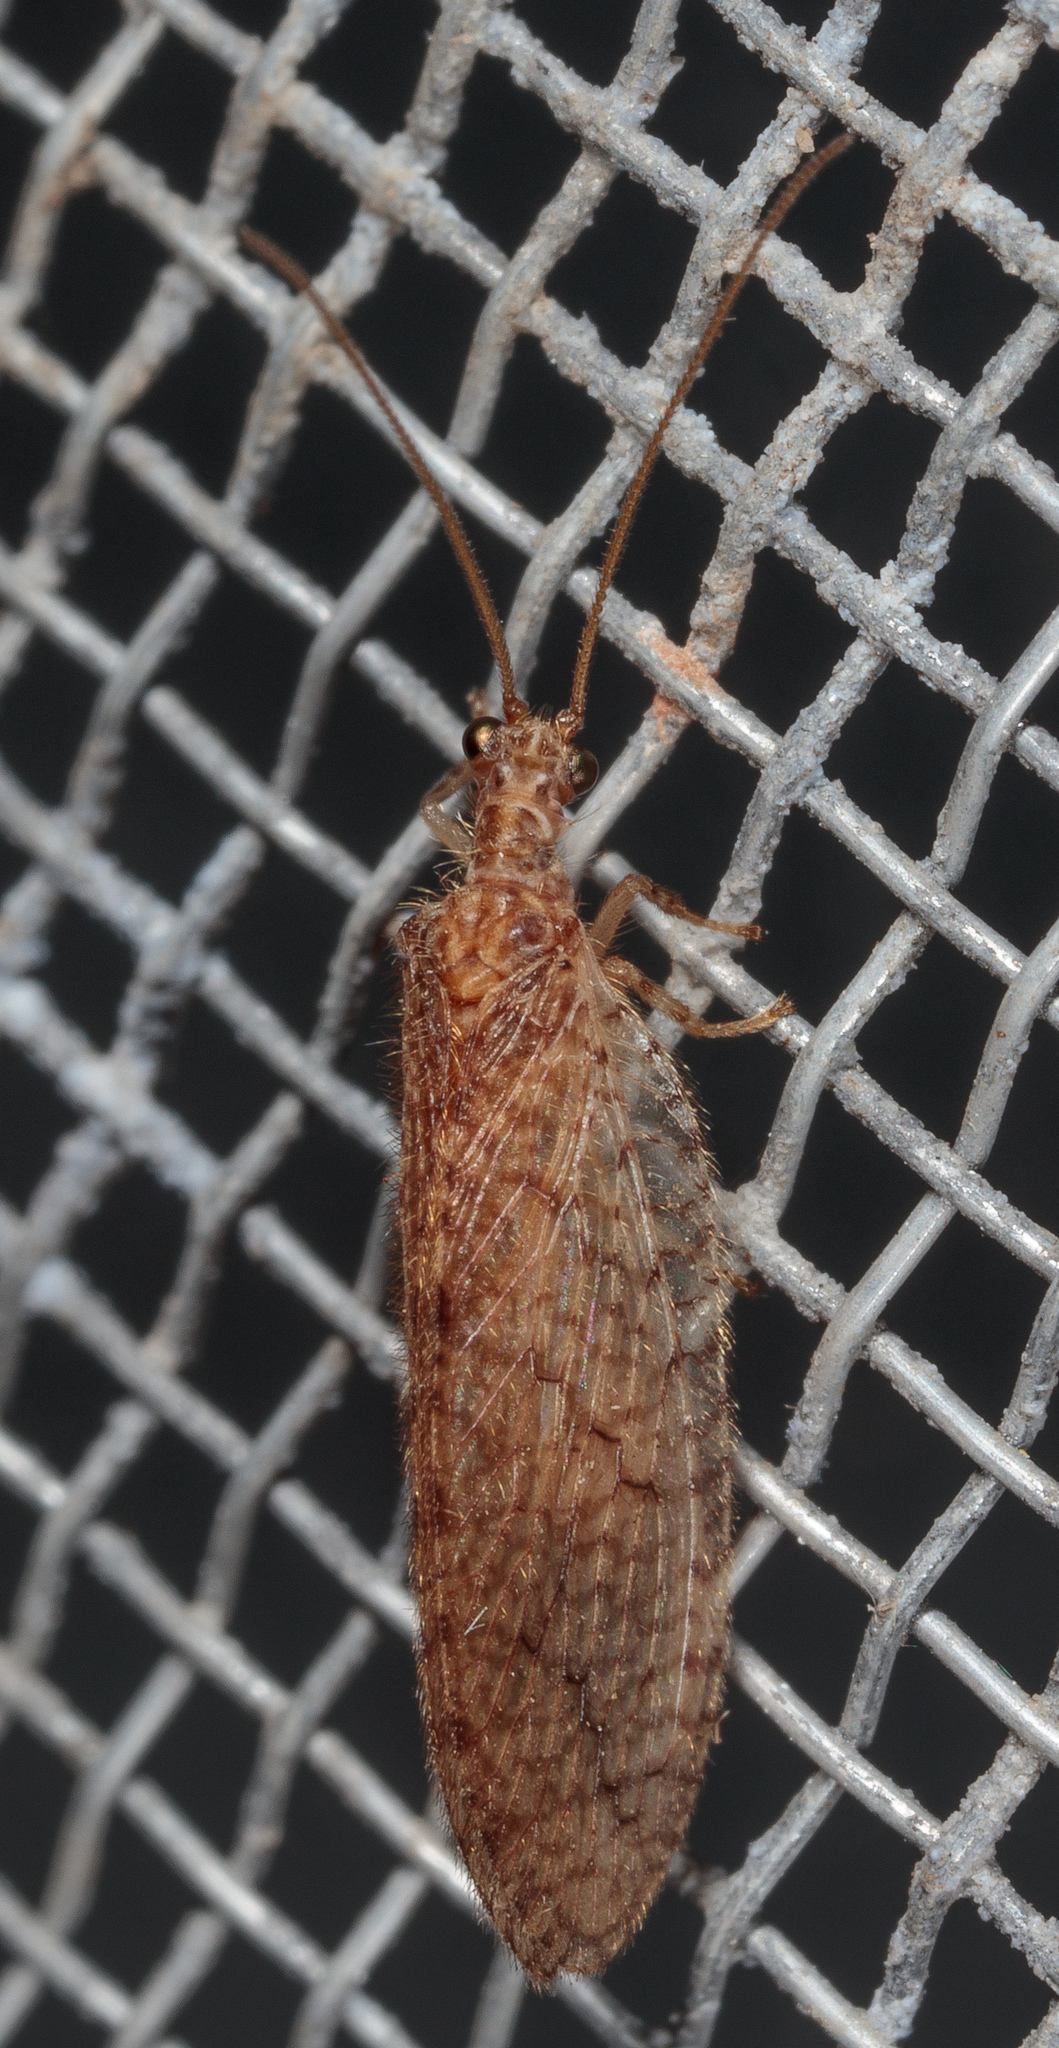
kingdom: Animalia
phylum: Arthropoda
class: Insecta
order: Neuroptera
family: Hemerobiidae
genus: Micromus
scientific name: Micromus posticus
